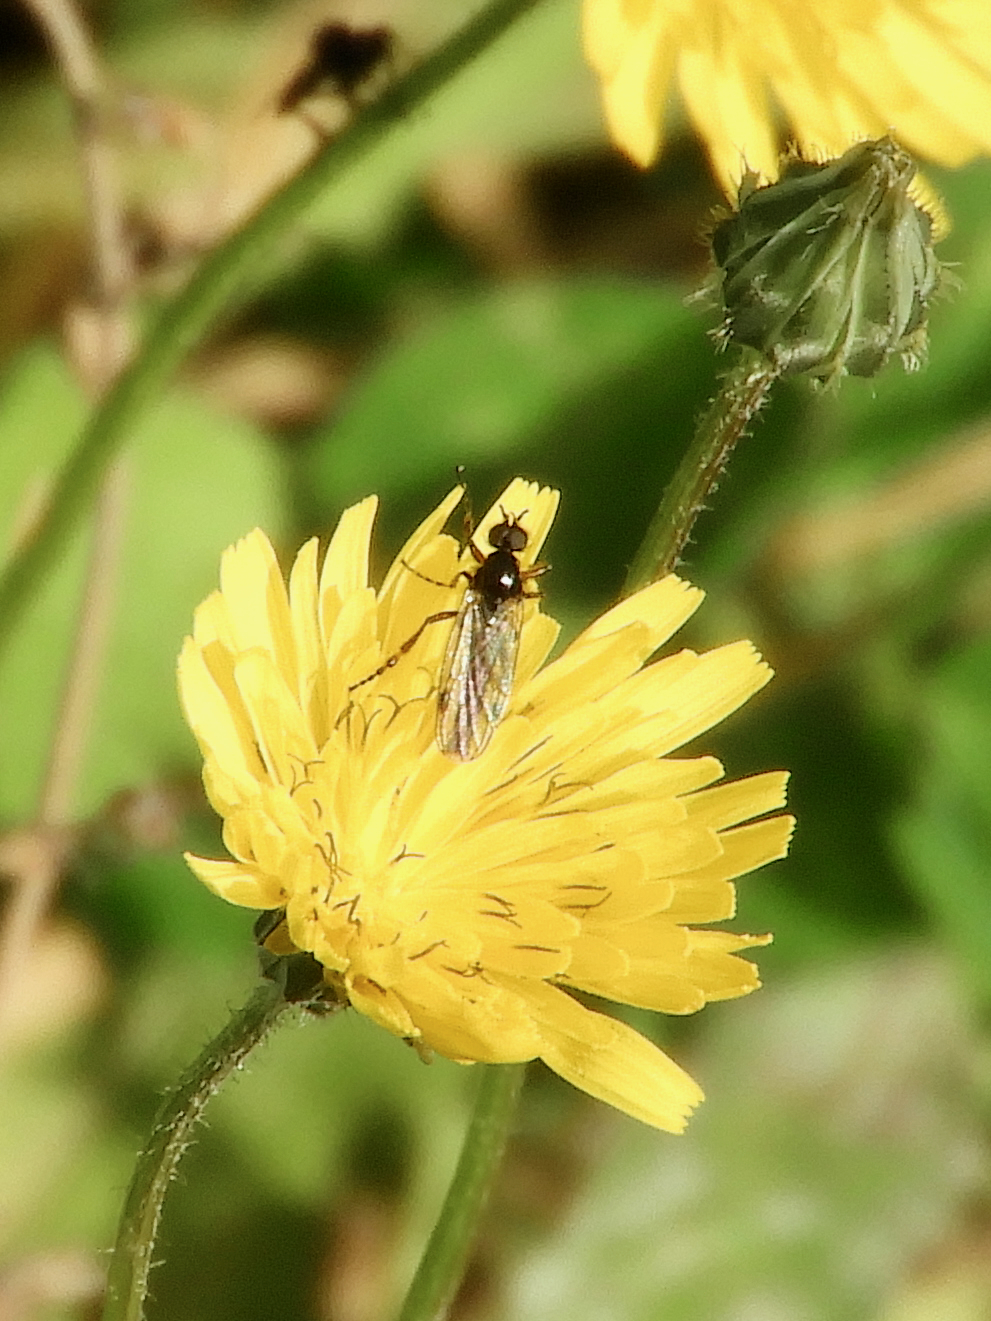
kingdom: Animalia
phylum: Arthropoda
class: Insecta
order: Diptera
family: Bibionidae
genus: Bibio
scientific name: Bibio
